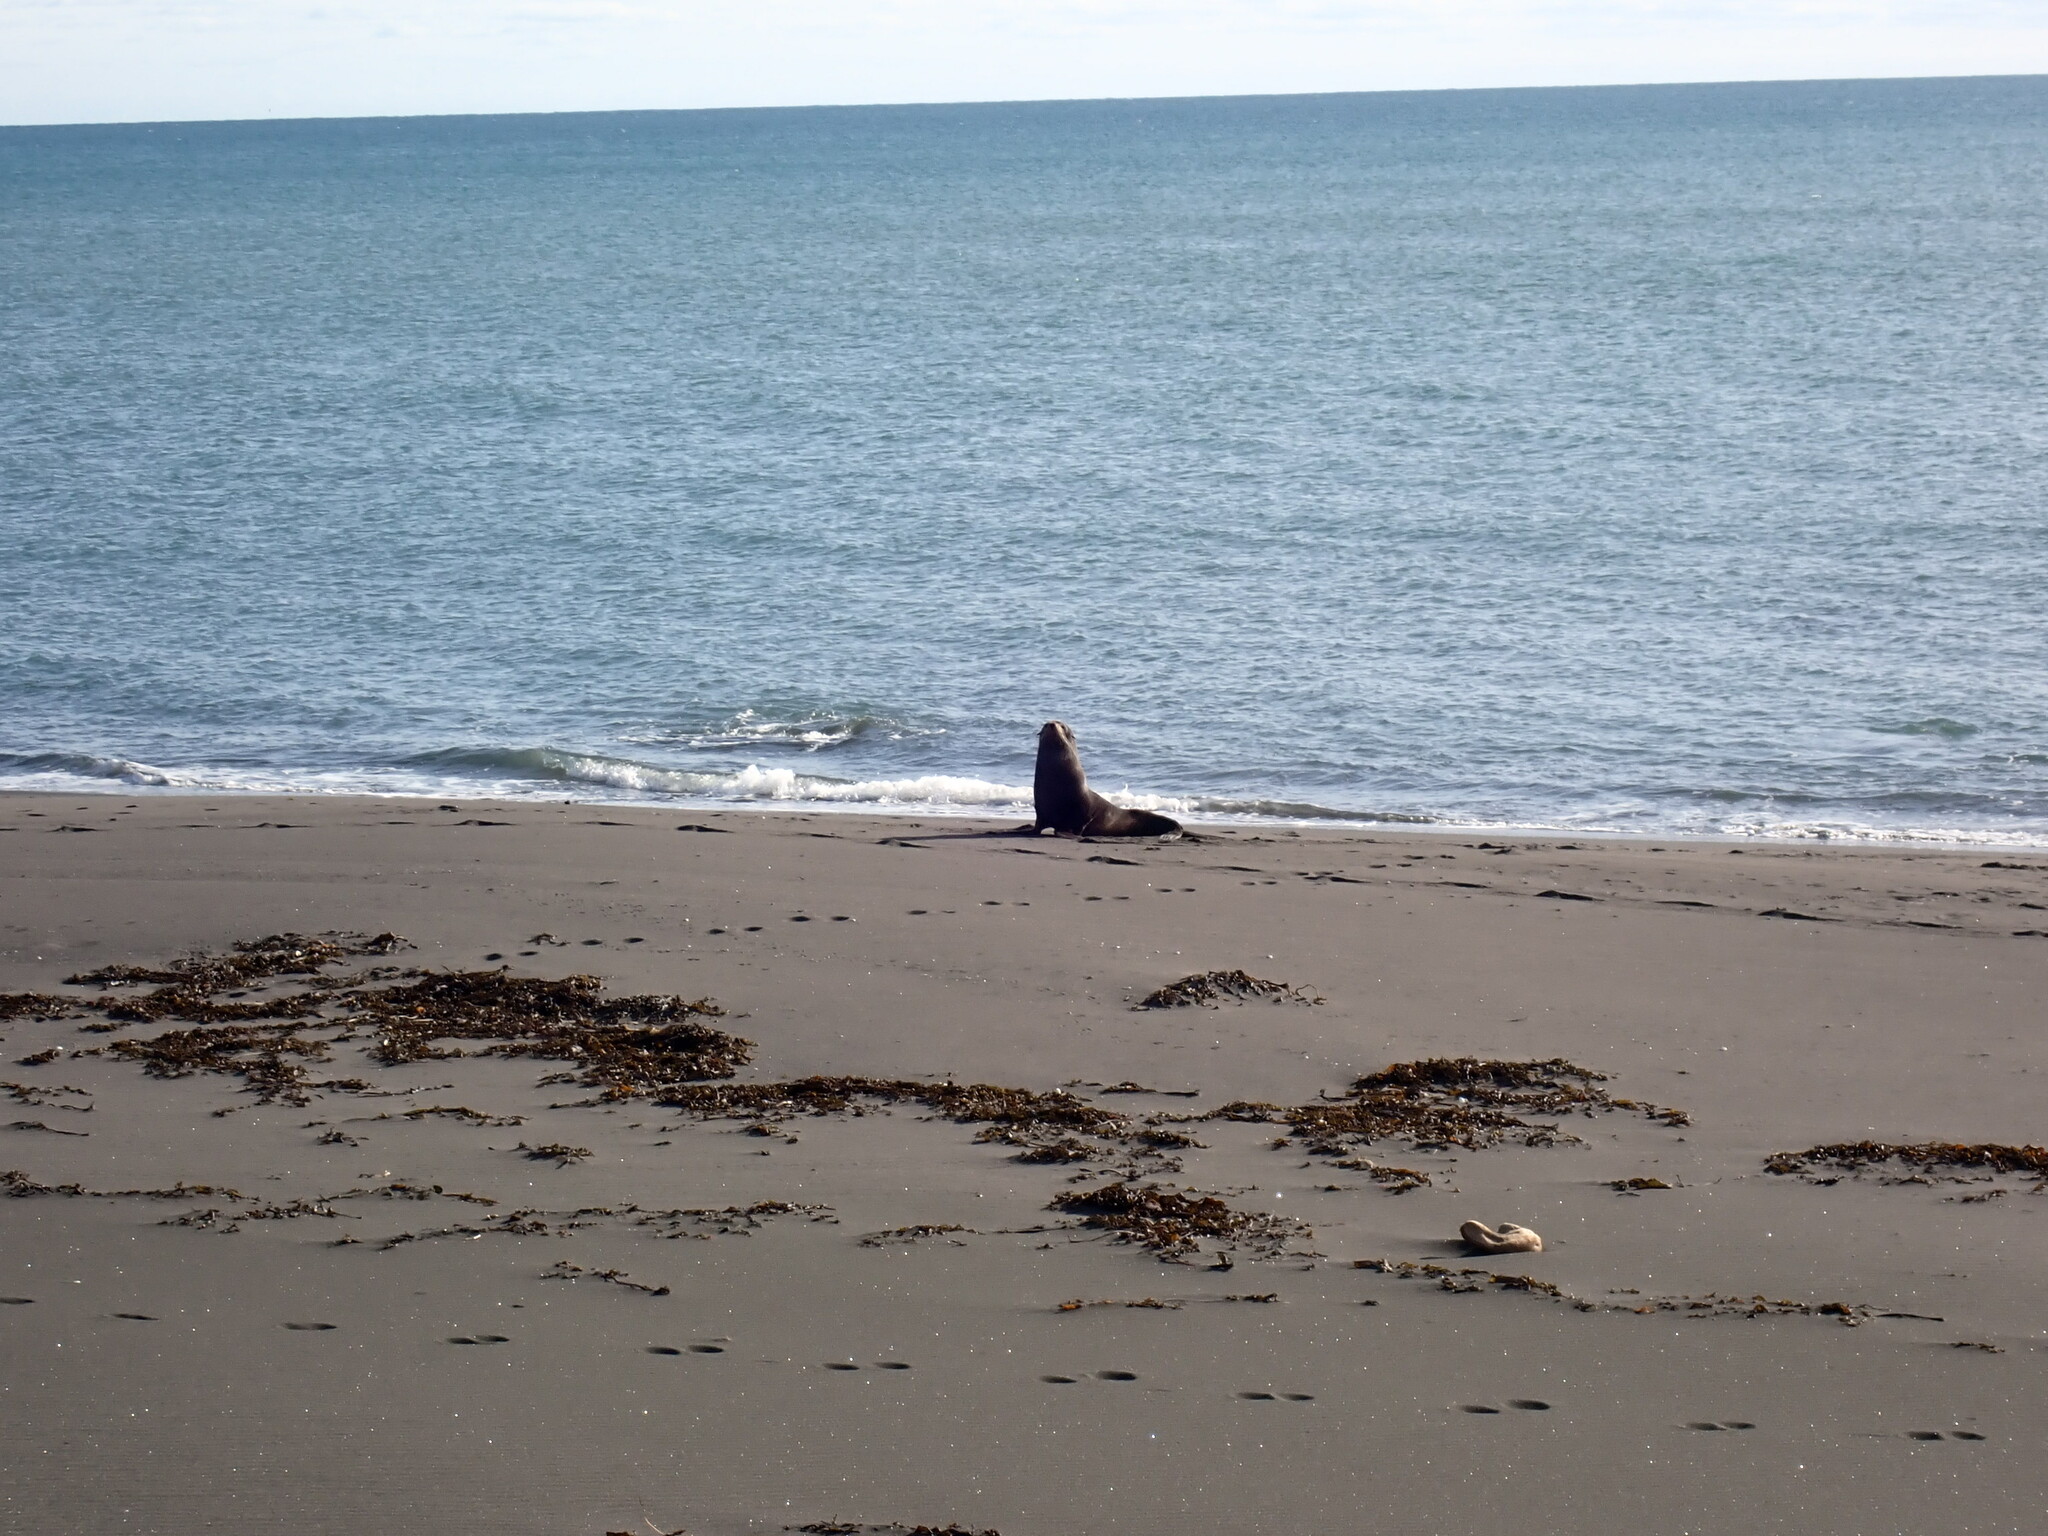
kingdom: Animalia
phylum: Chordata
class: Mammalia
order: Carnivora
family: Otariidae
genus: Arctocephalus
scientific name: Arctocephalus forsteri
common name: New zealand fur seal
